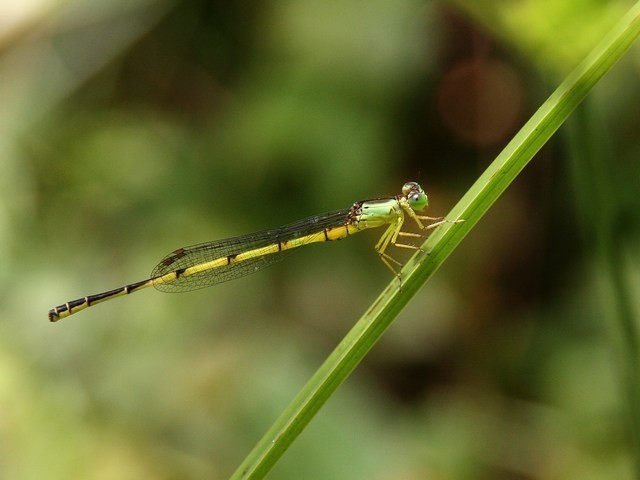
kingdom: Animalia
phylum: Arthropoda
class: Insecta
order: Odonata
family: Coenagrionidae
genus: Ceriagrion
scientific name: Ceriagrion nigrolineatum
